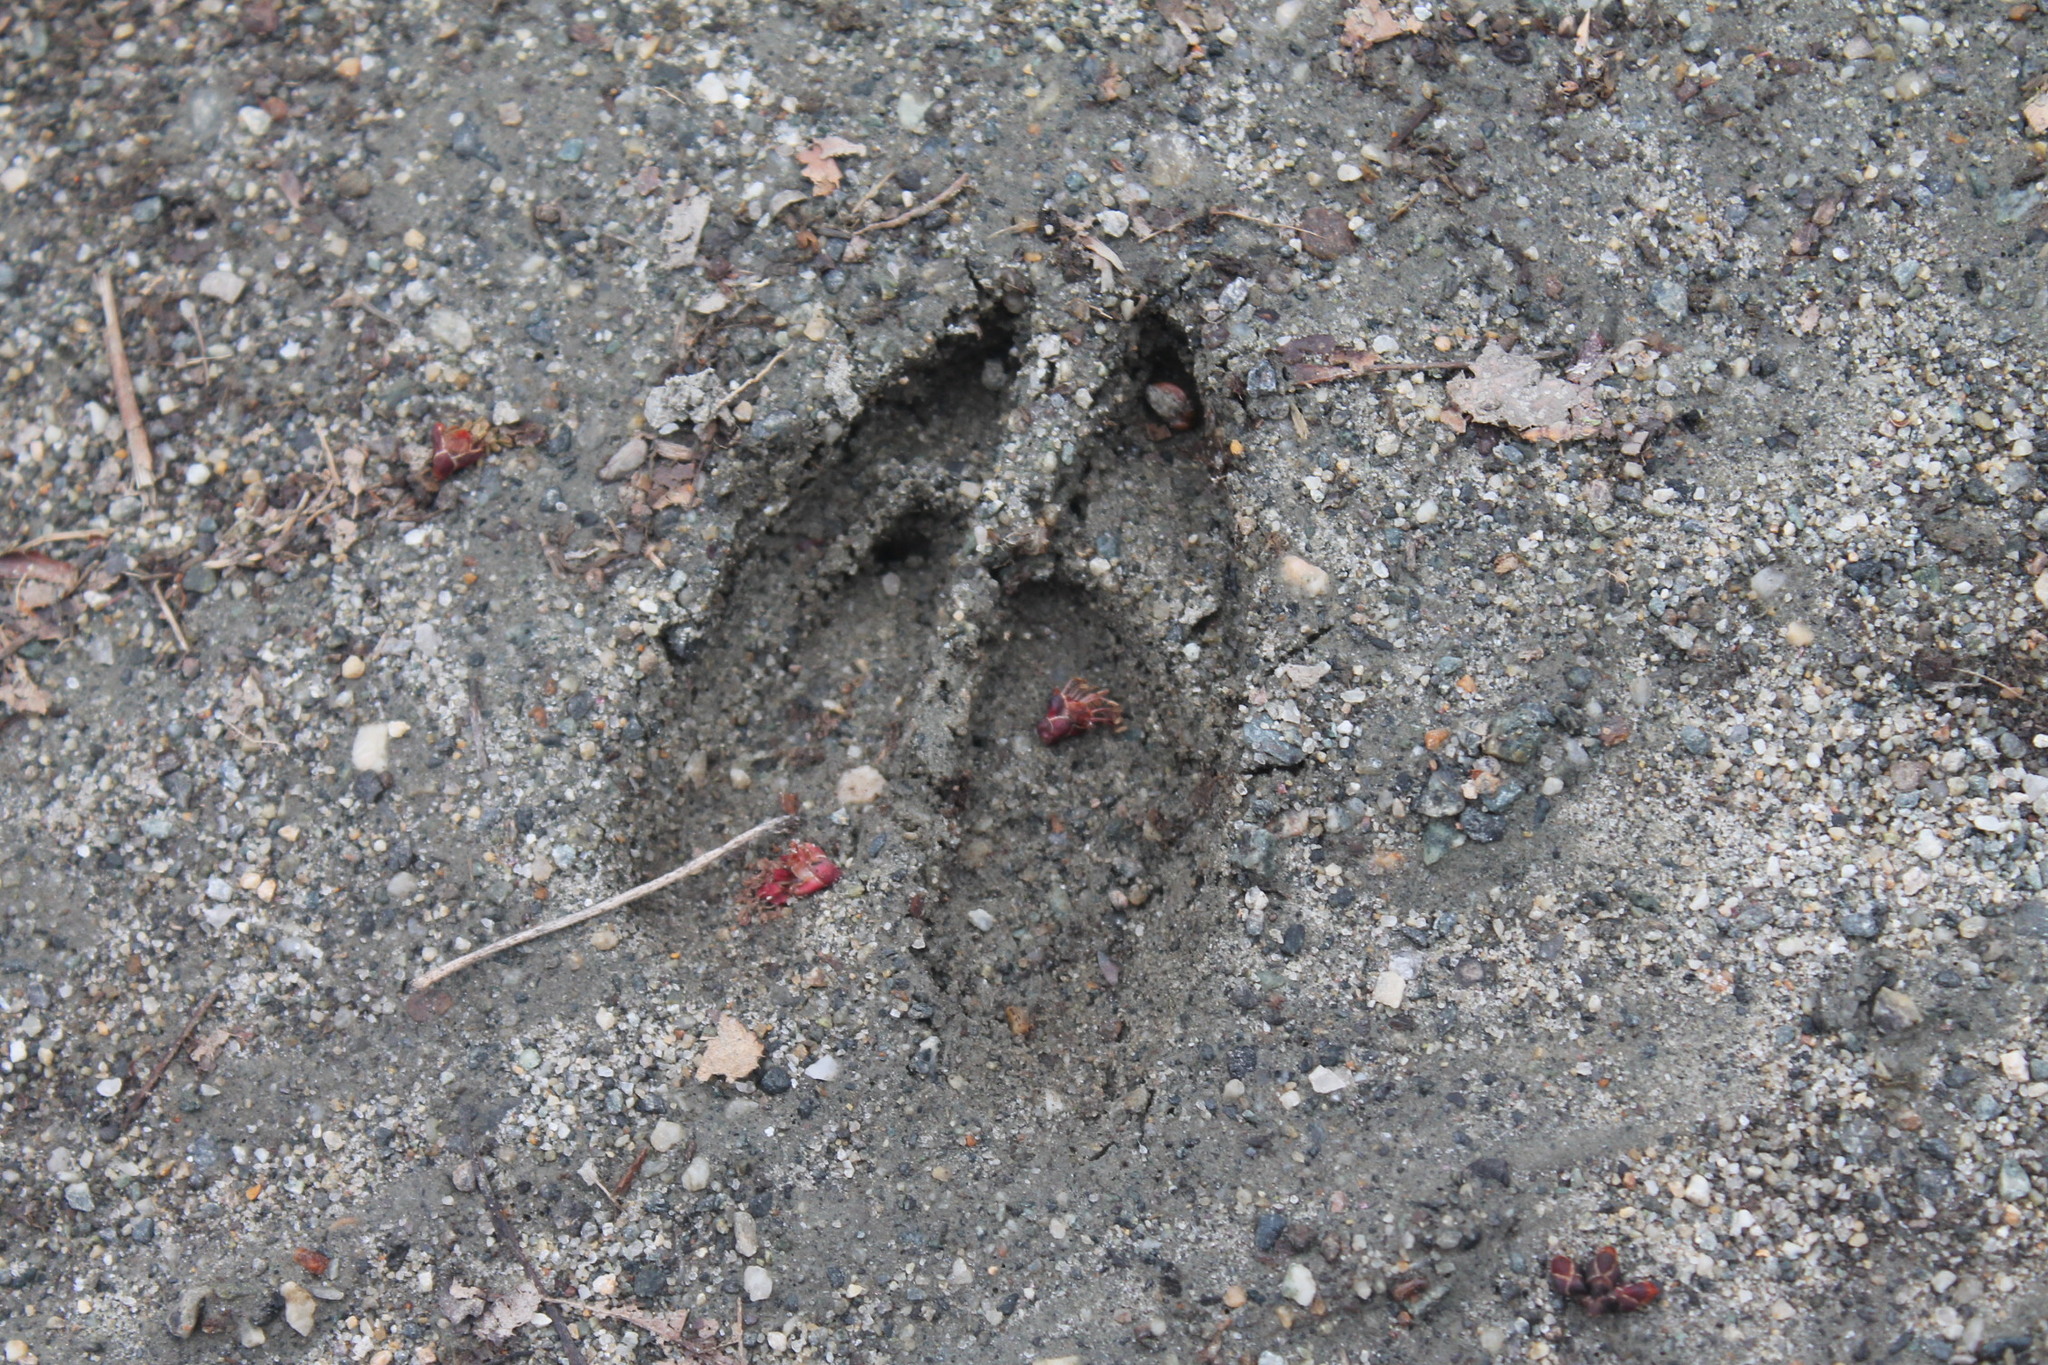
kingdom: Animalia
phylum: Chordata
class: Mammalia
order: Artiodactyla
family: Cervidae
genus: Odocoileus
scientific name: Odocoileus virginianus
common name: White-tailed deer
